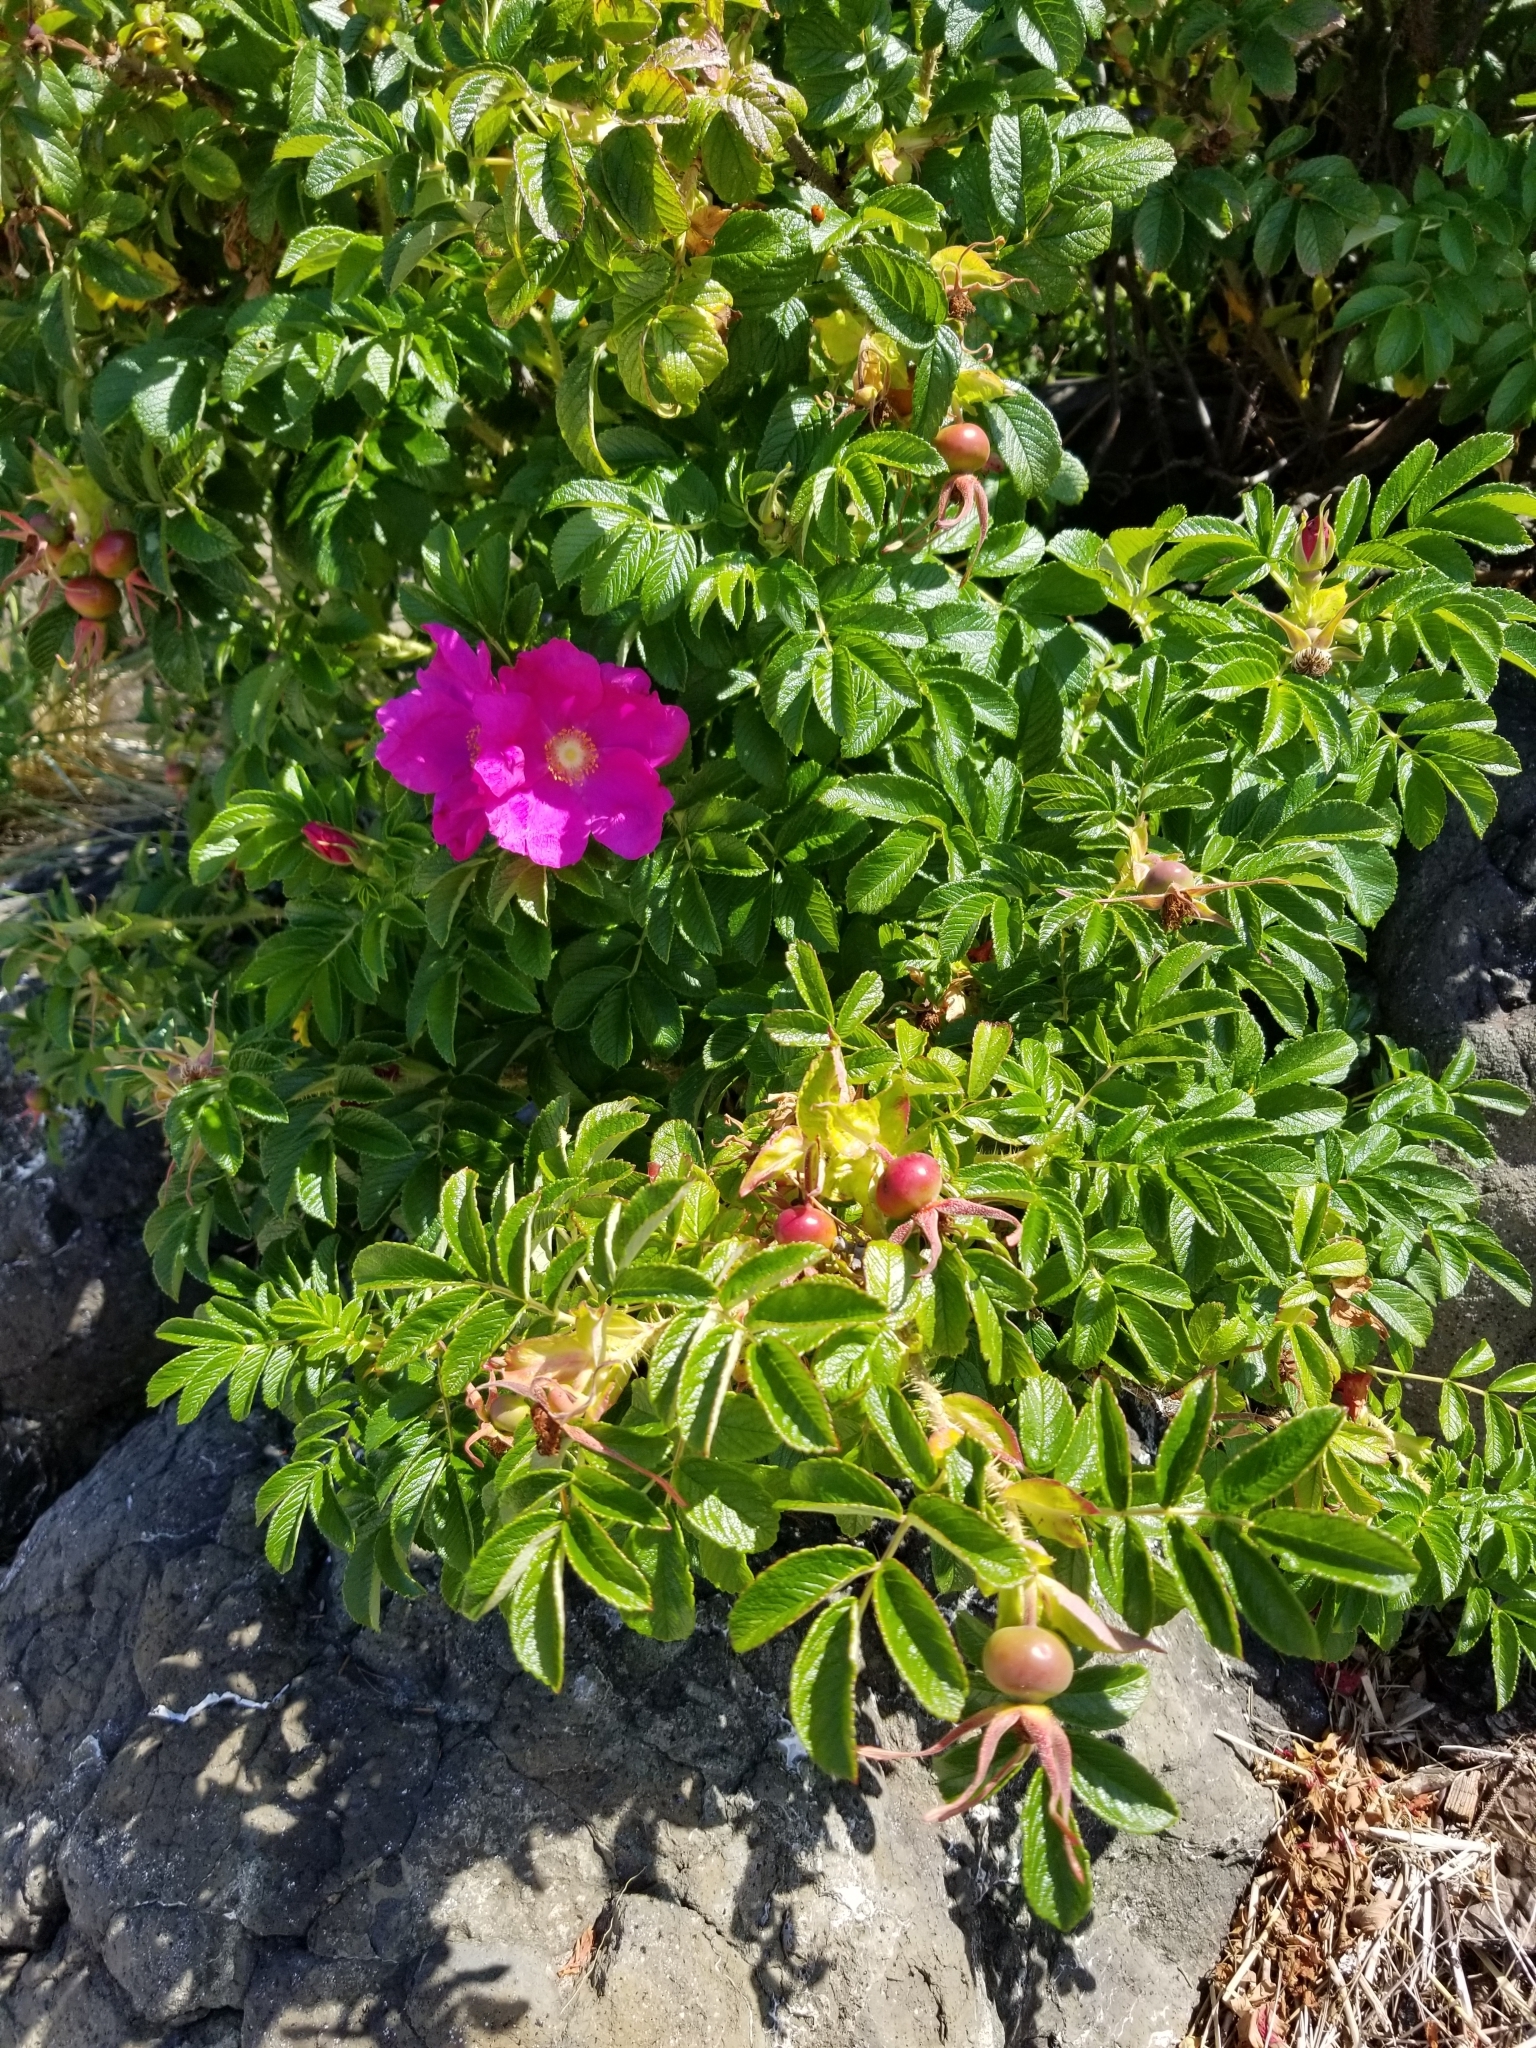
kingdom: Plantae
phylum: Tracheophyta
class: Magnoliopsida
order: Rosales
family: Rosaceae
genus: Rosa
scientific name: Rosa rugosa
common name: Japanese rose
